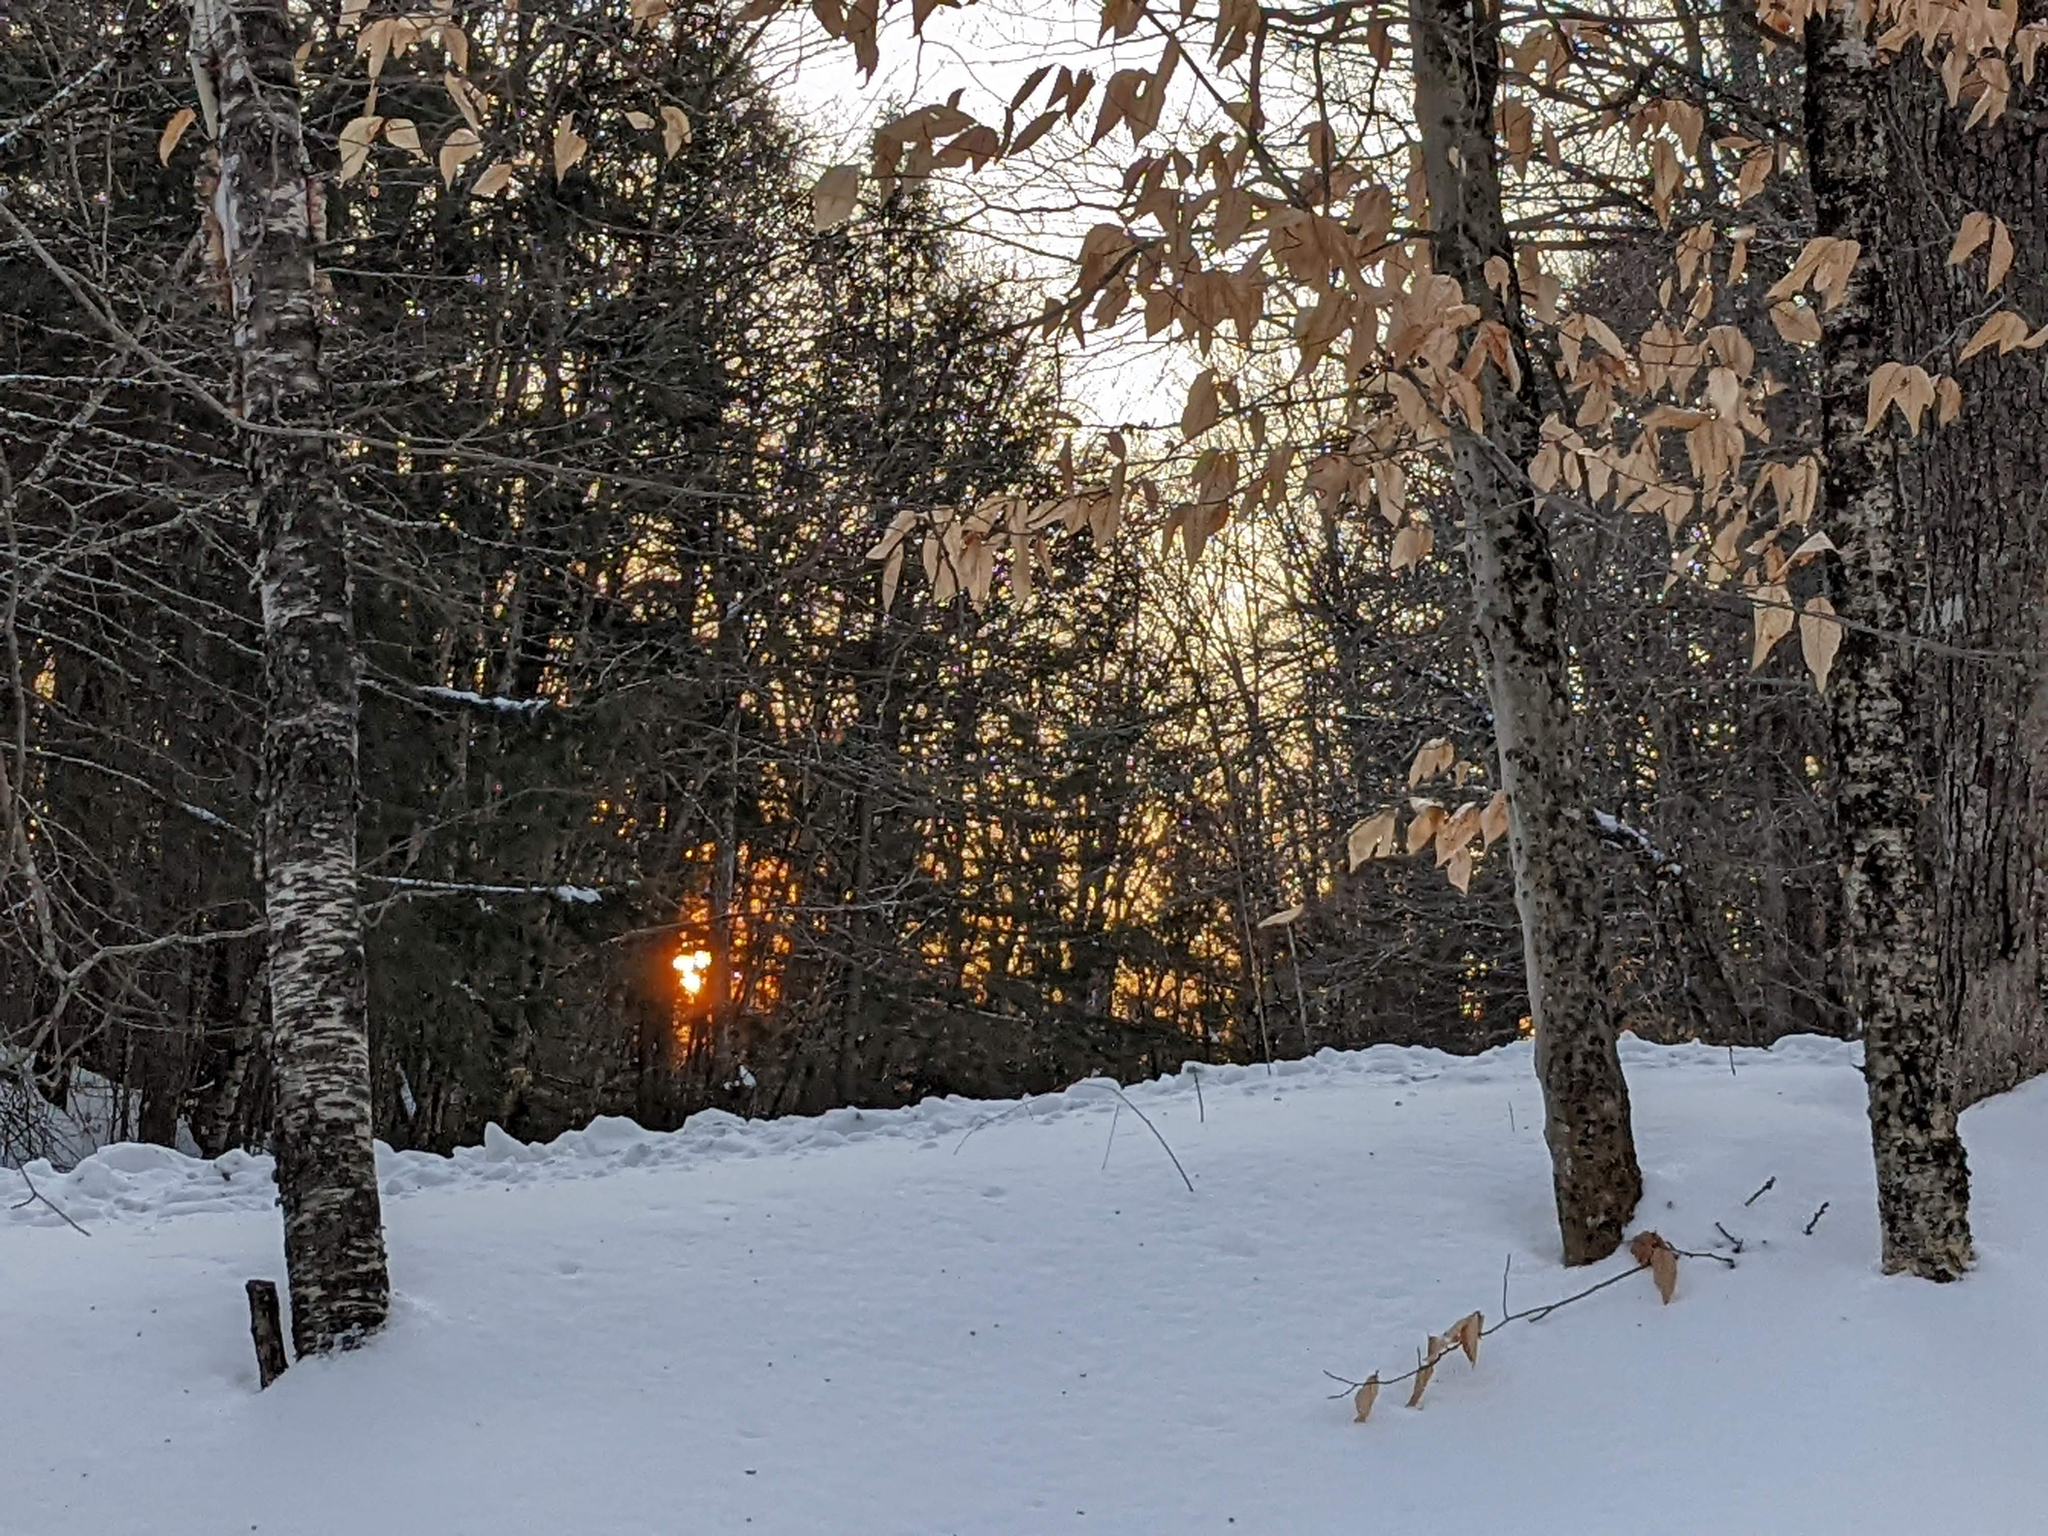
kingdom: Plantae
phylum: Tracheophyta
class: Magnoliopsida
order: Fagales
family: Fagaceae
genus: Fagus
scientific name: Fagus grandifolia
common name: American beech
